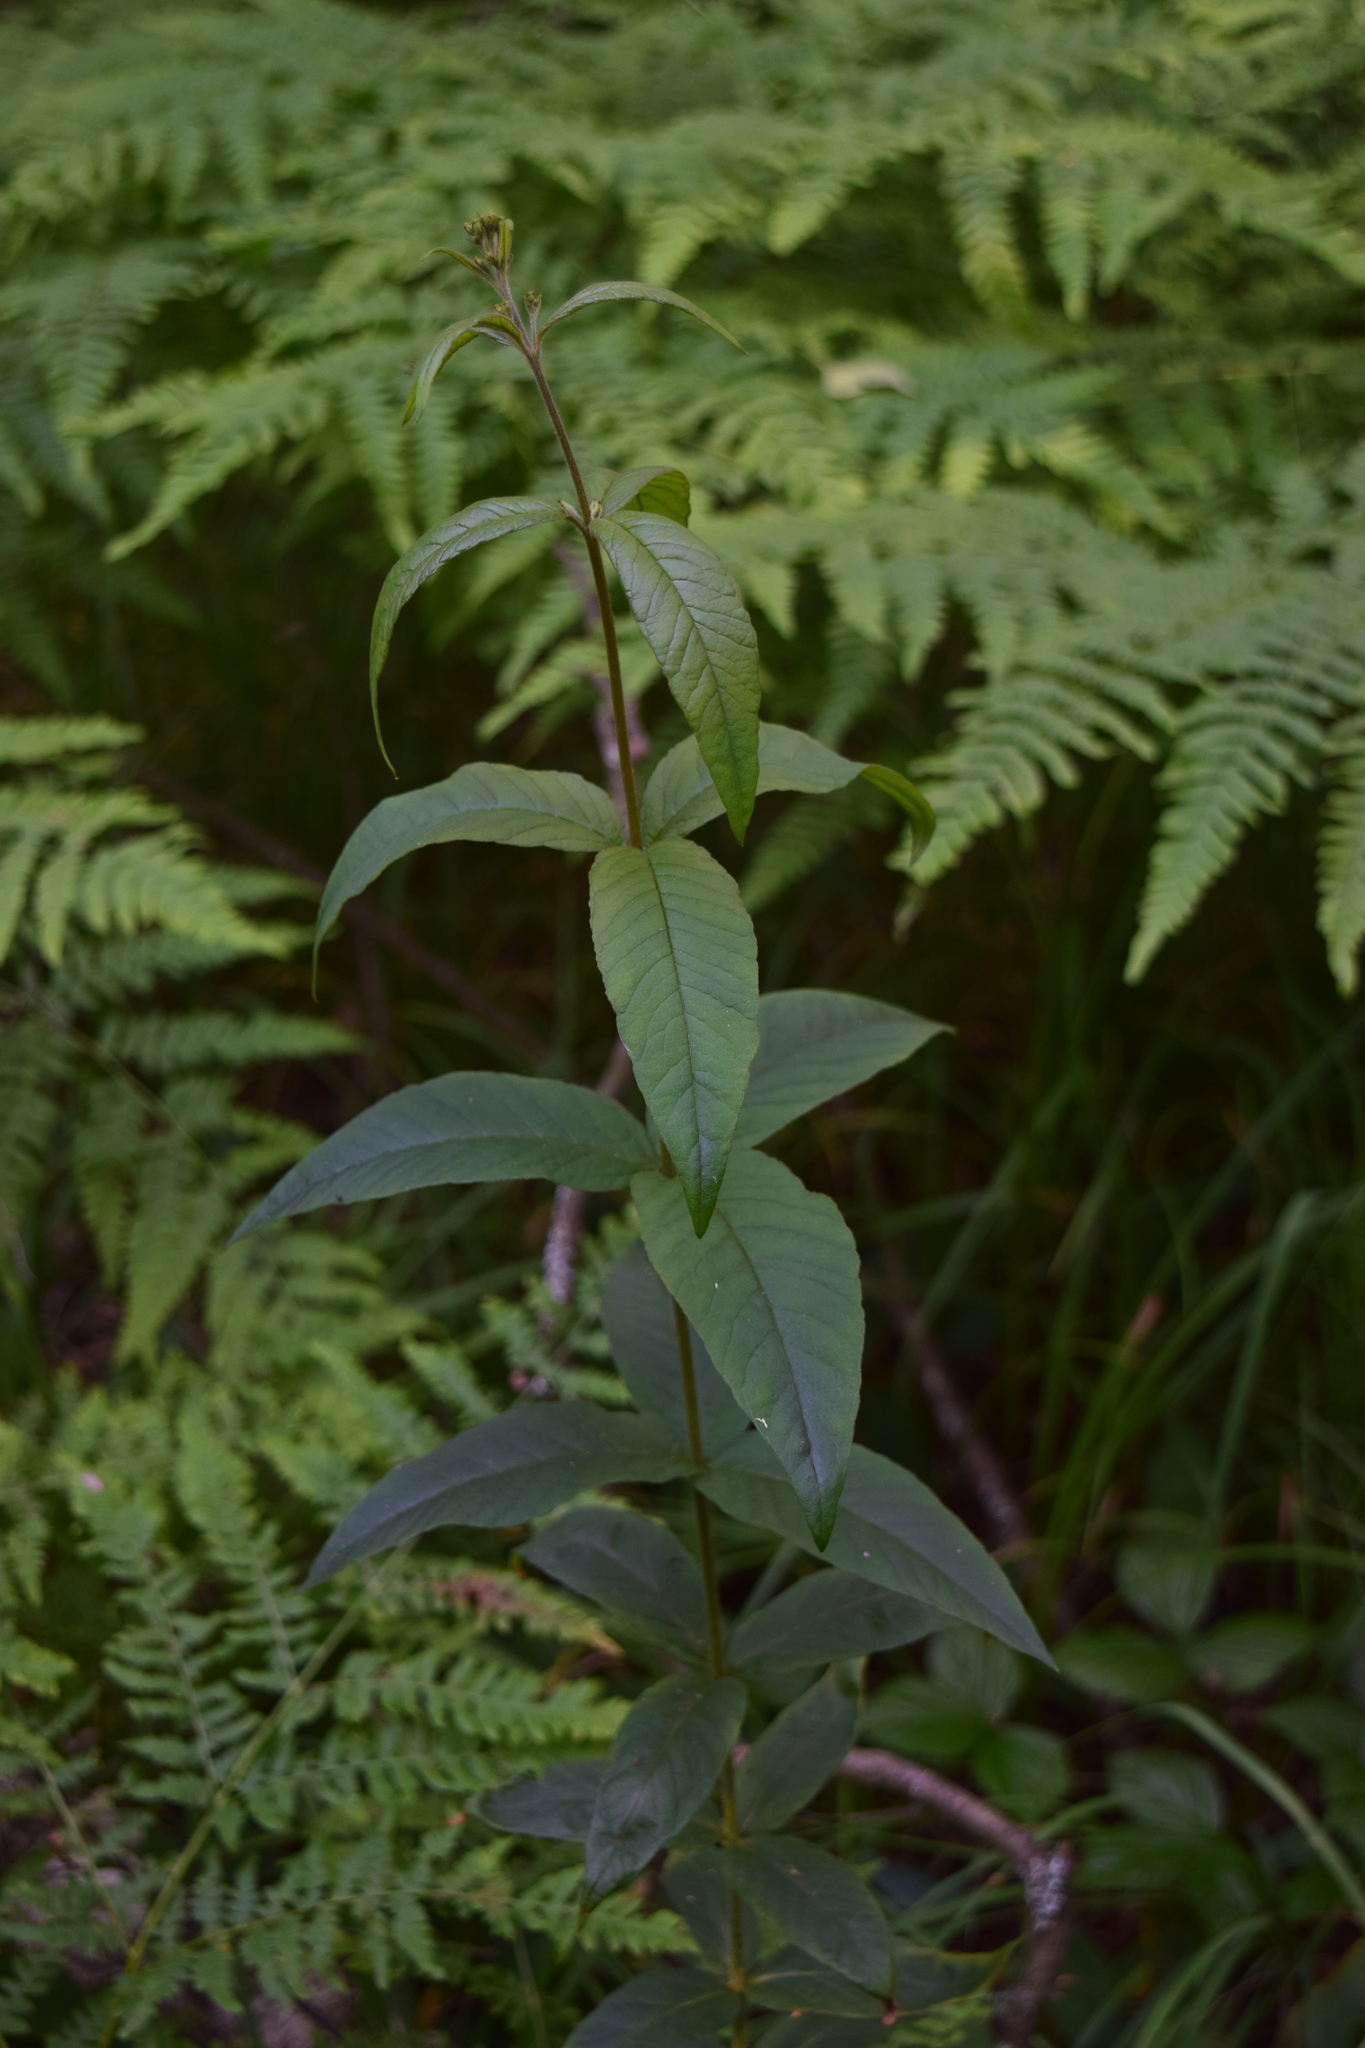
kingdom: Plantae
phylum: Tracheophyta
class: Magnoliopsida
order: Ericales
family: Primulaceae
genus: Lysimachia
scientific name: Lysimachia vulgaris
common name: Yellow loosestrife
